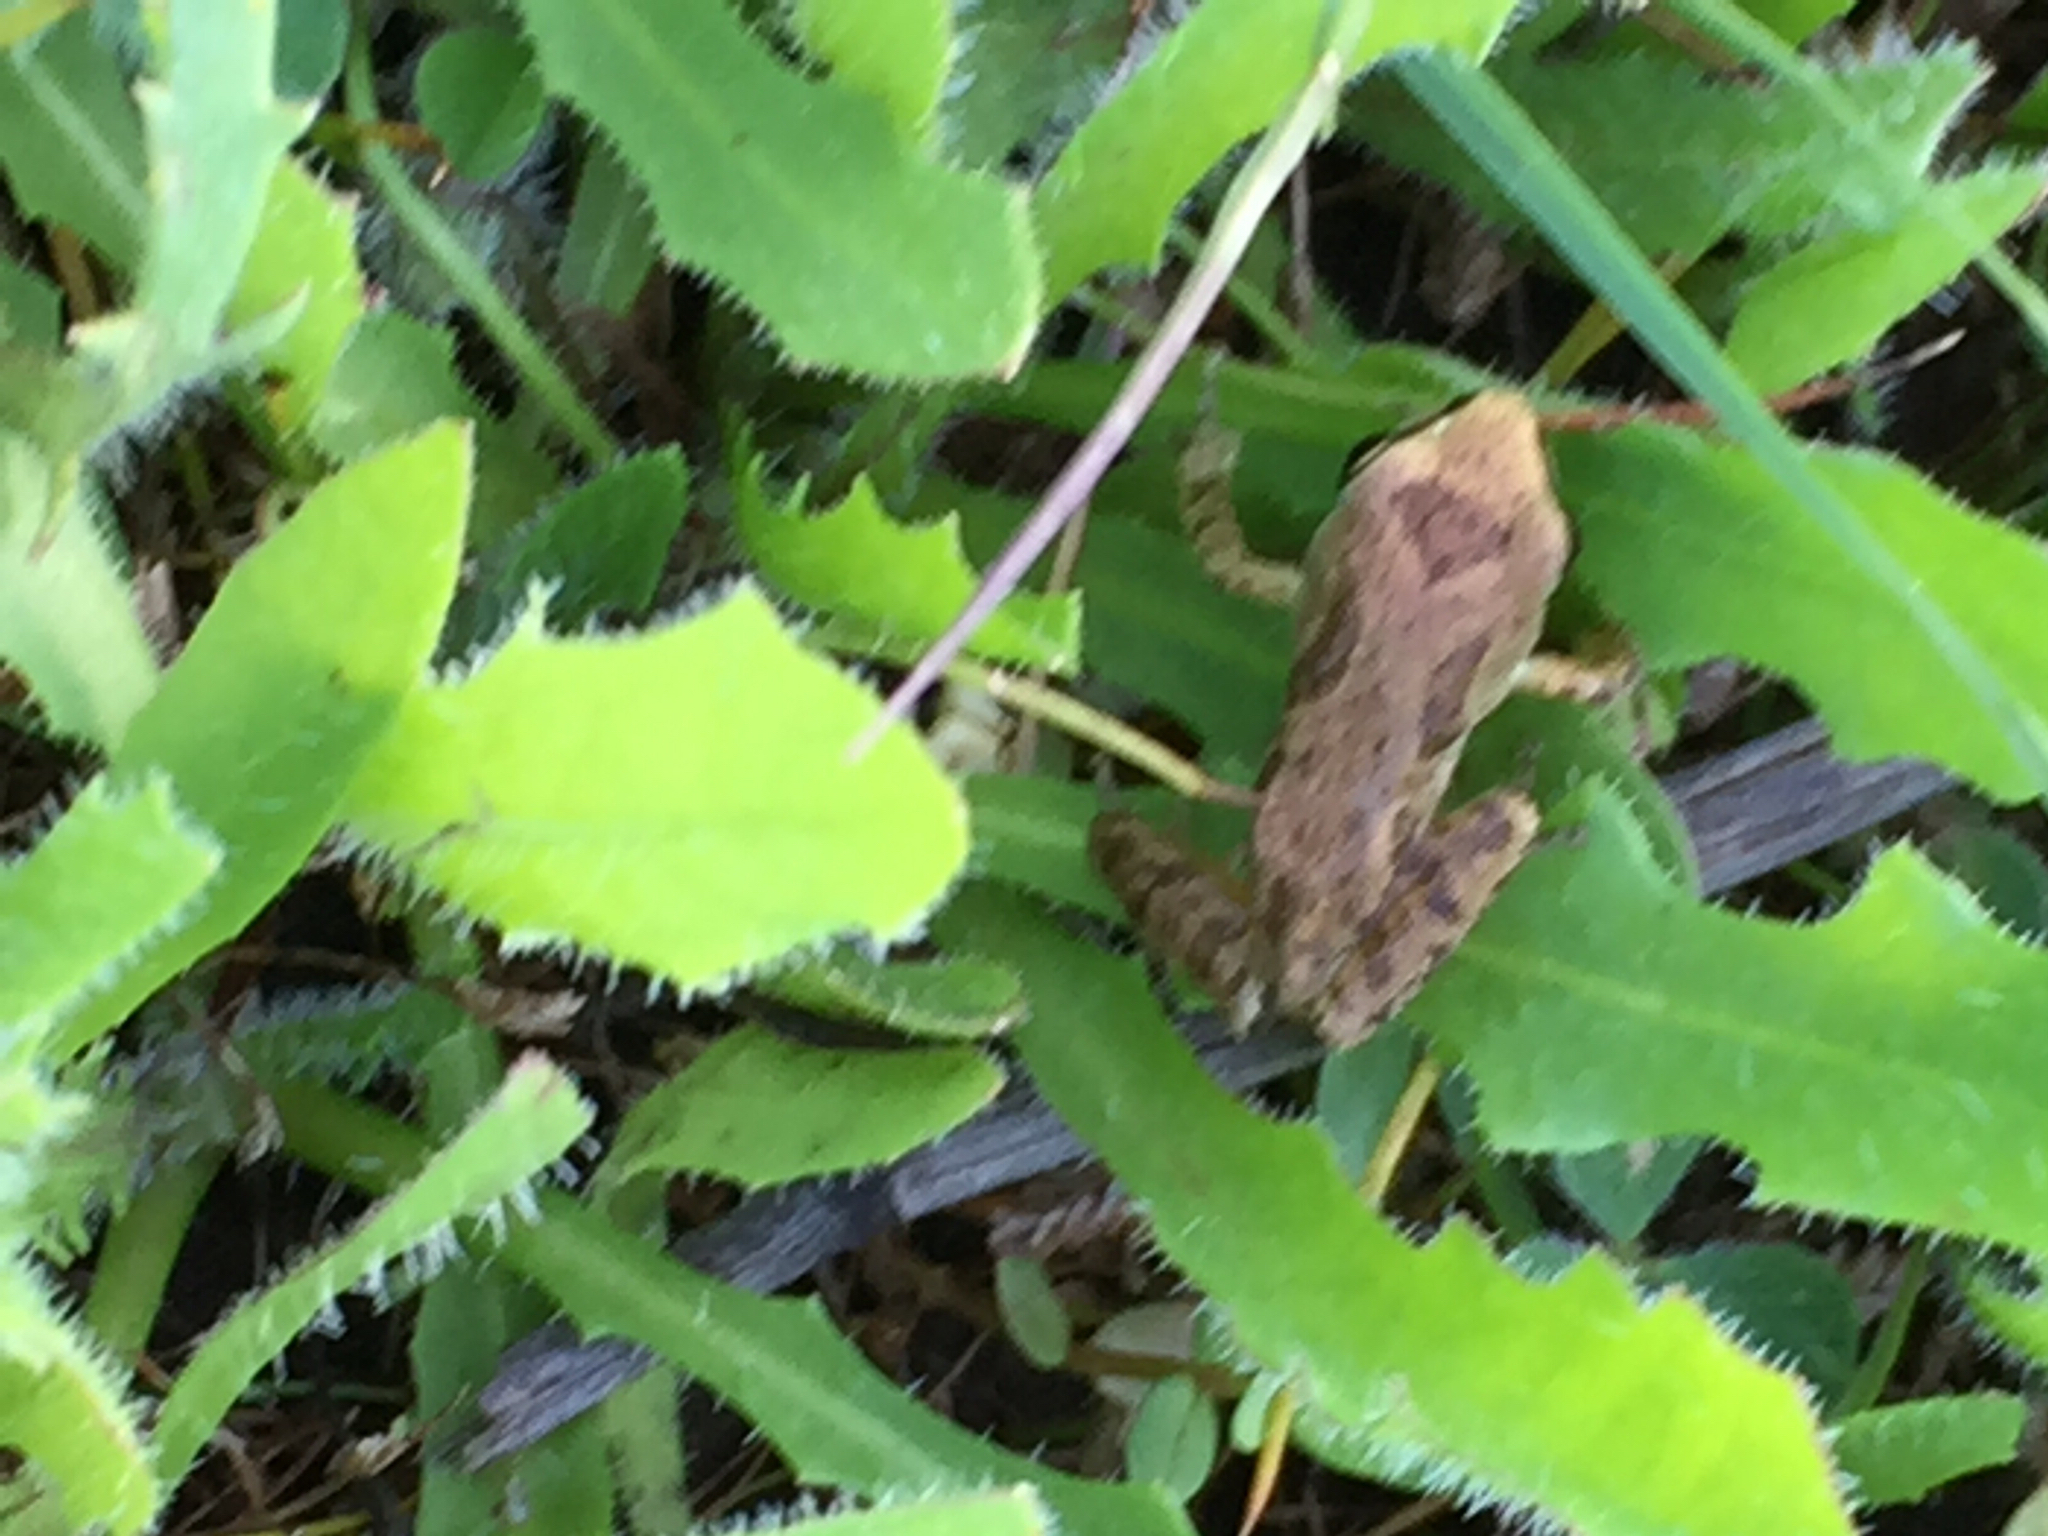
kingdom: Animalia
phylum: Chordata
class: Amphibia
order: Anura
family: Hylidae
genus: Pseudacris
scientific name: Pseudacris regilla
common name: Pacific chorus frog
